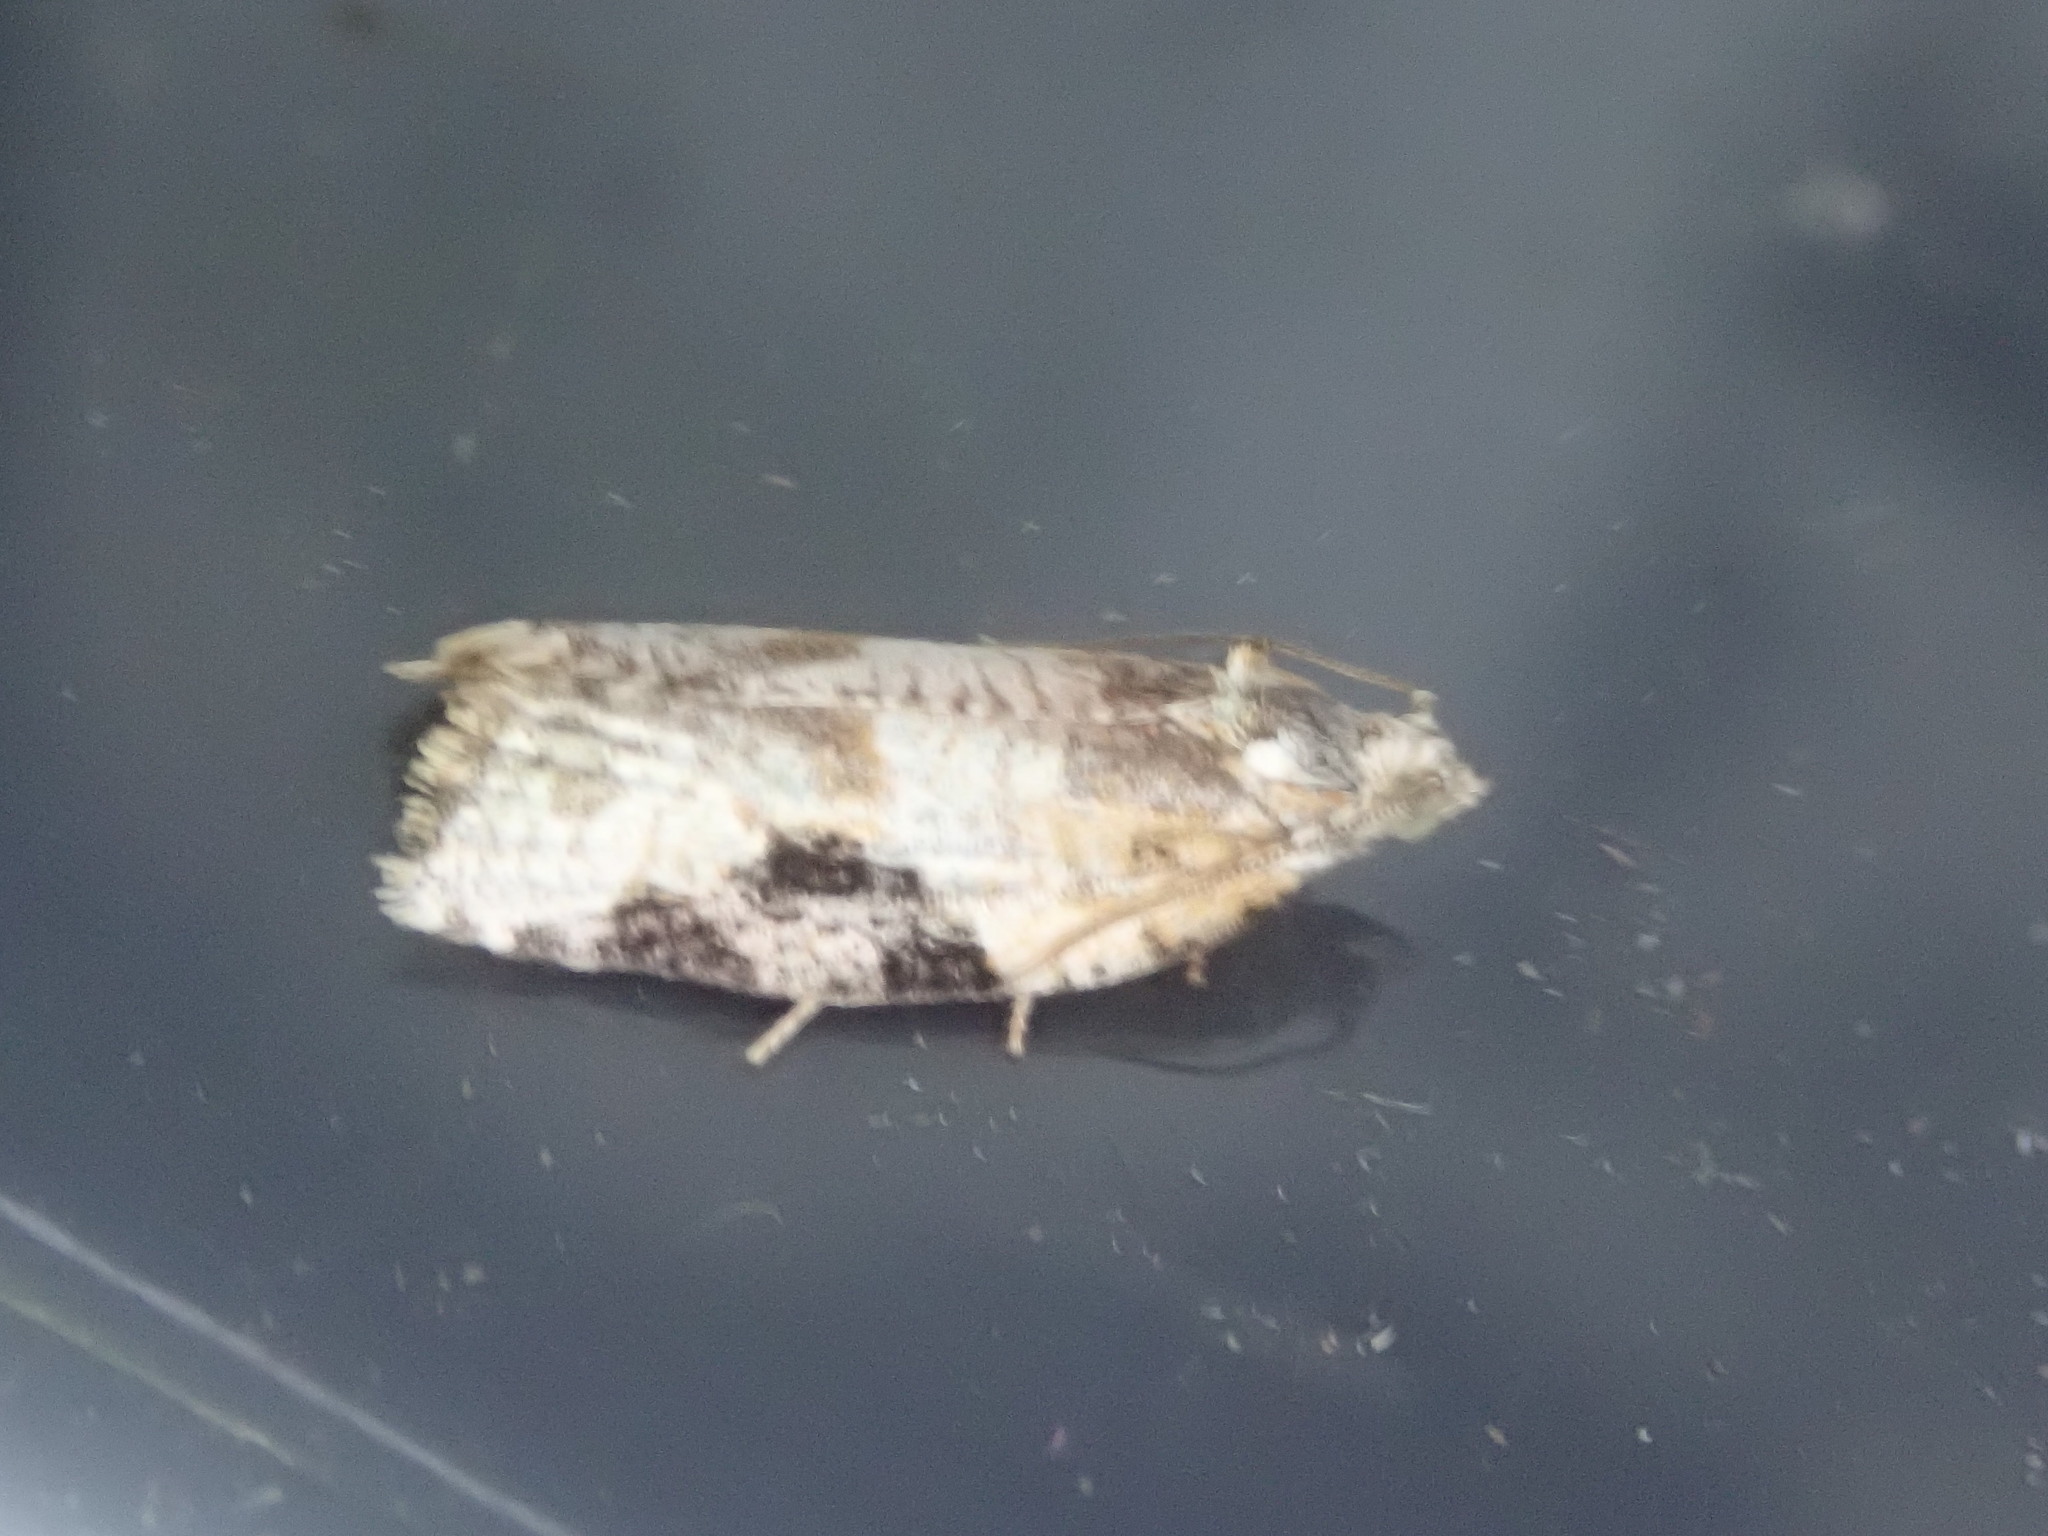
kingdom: Animalia
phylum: Arthropoda
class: Insecta
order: Lepidoptera
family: Tortricidae
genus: Argyrotaenia
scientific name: Argyrotaenia mariana
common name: Gray-banded leafroller moth
